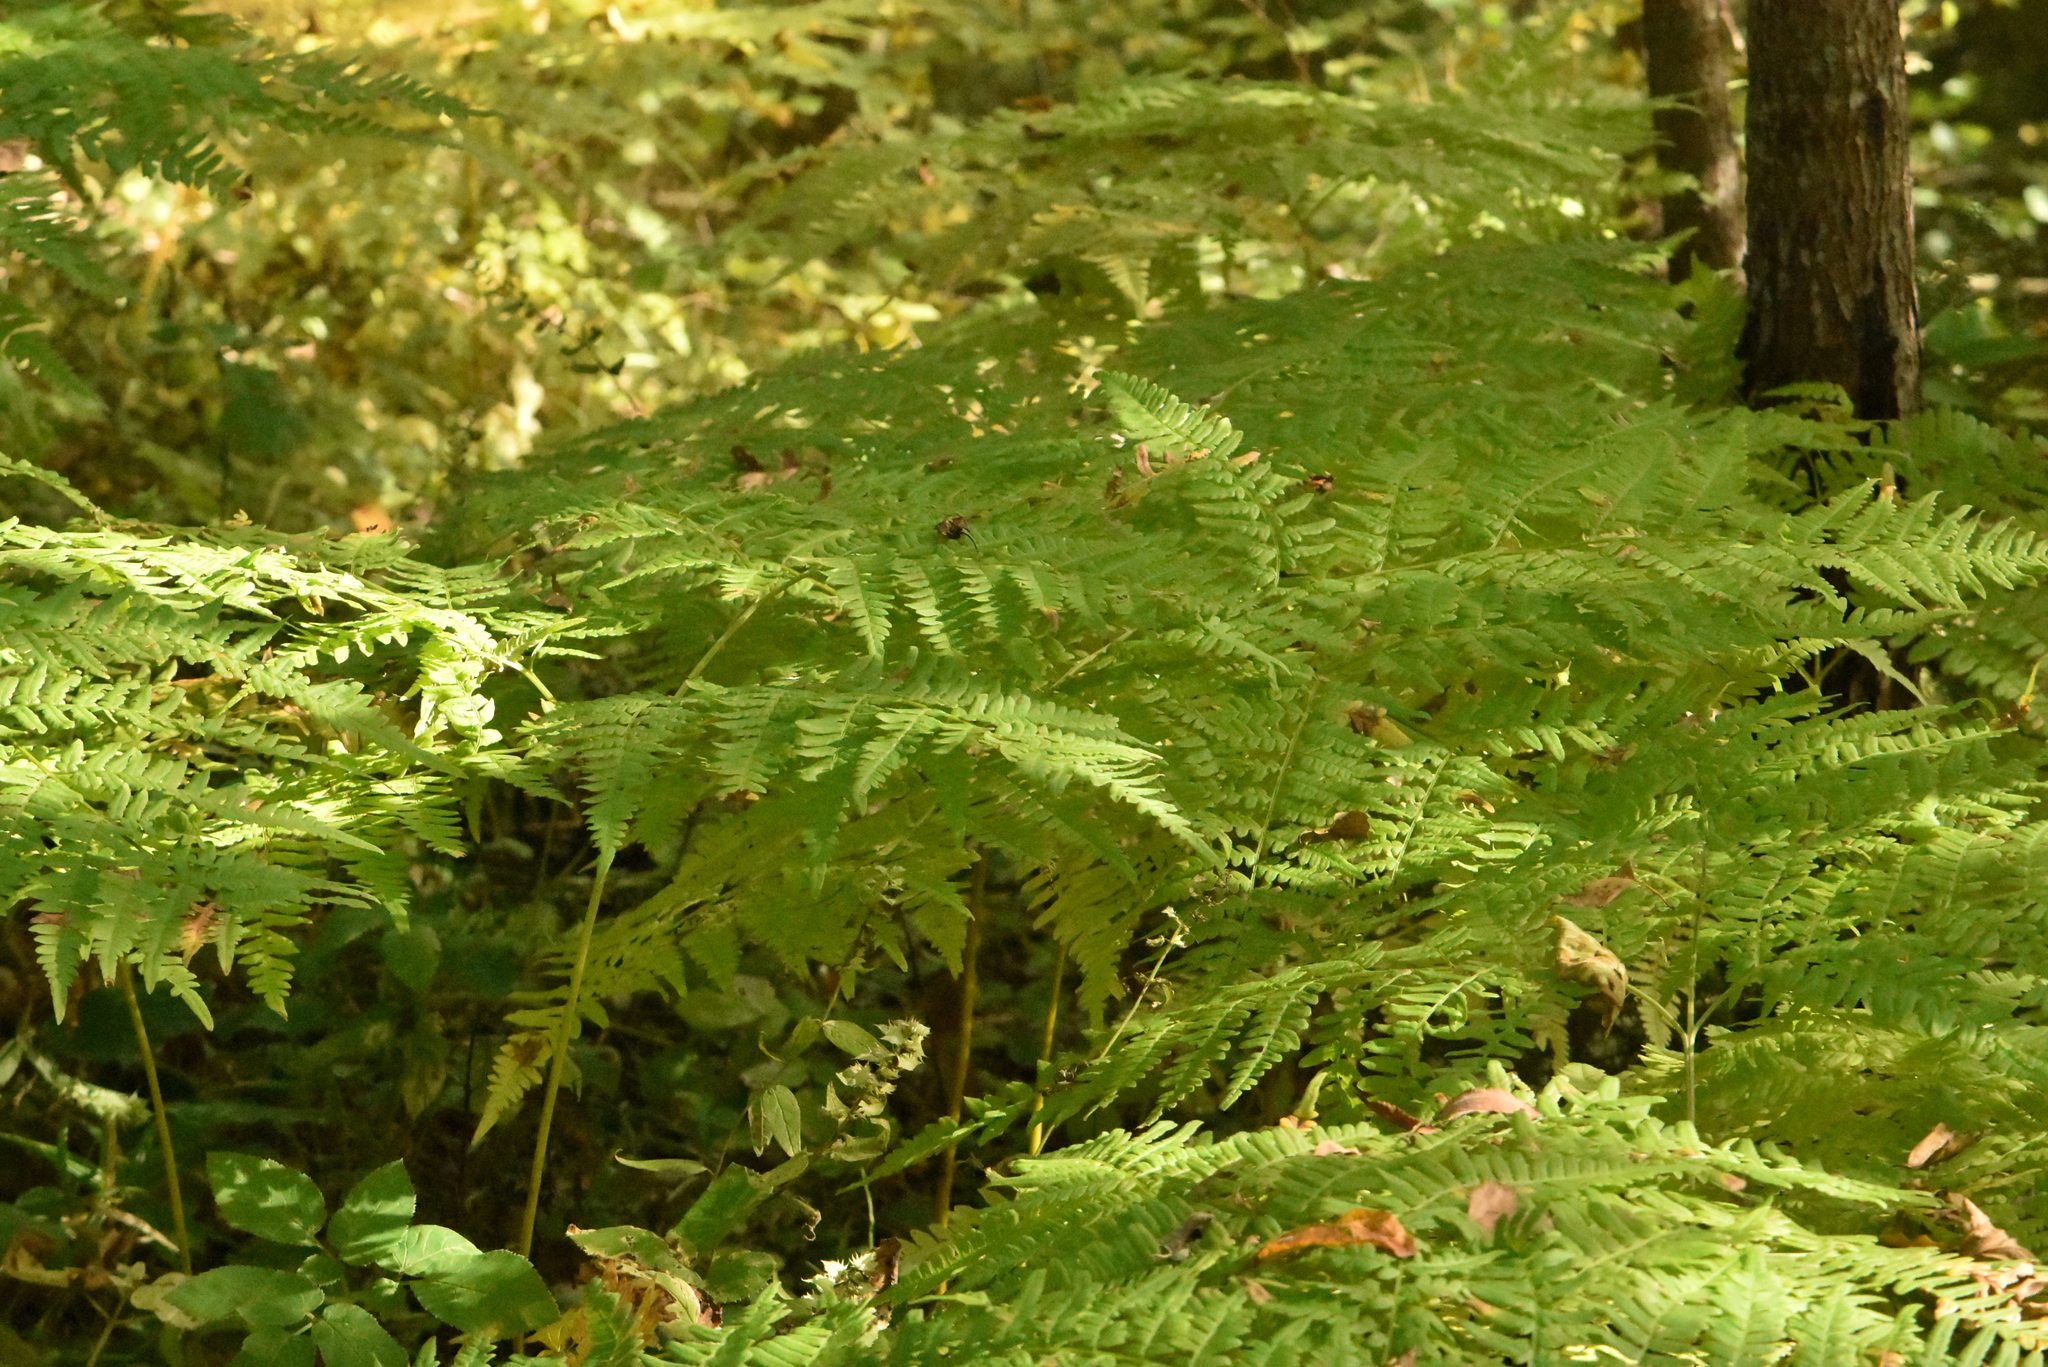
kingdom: Plantae
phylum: Tracheophyta
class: Polypodiopsida
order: Polypodiales
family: Dennstaedtiaceae
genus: Pteridium
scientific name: Pteridium aquilinum
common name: Bracken
